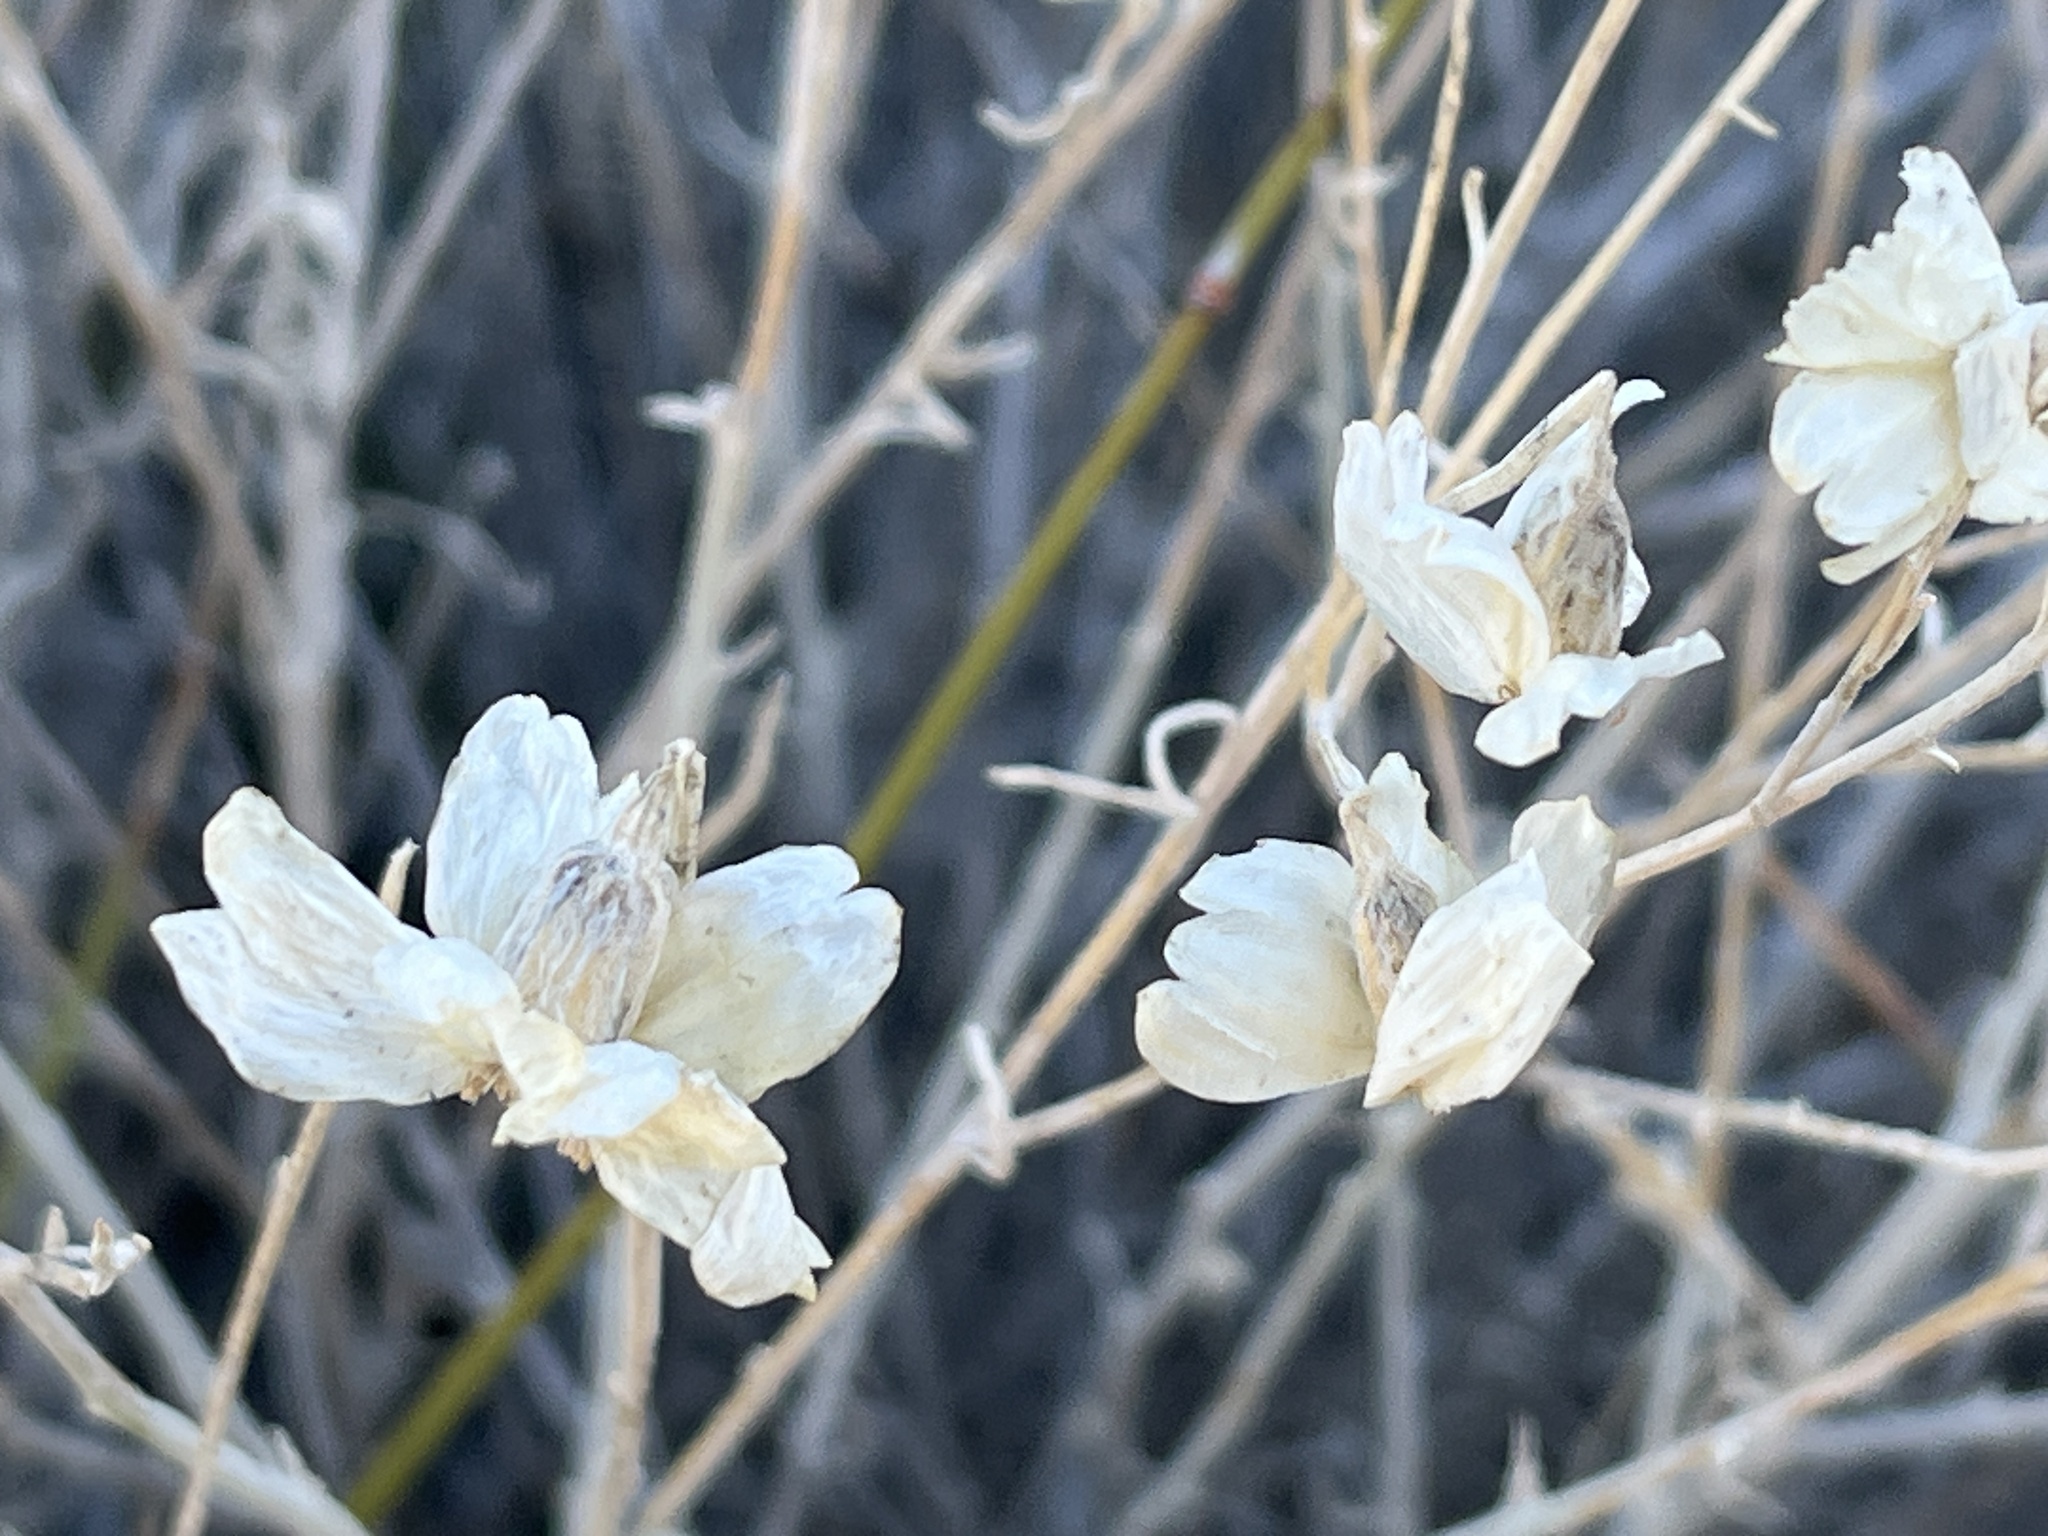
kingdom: Plantae
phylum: Tracheophyta
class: Magnoliopsida
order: Asterales
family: Asteraceae
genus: Psilostrophe
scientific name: Psilostrophe cooperi
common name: White-stem paper-flower
